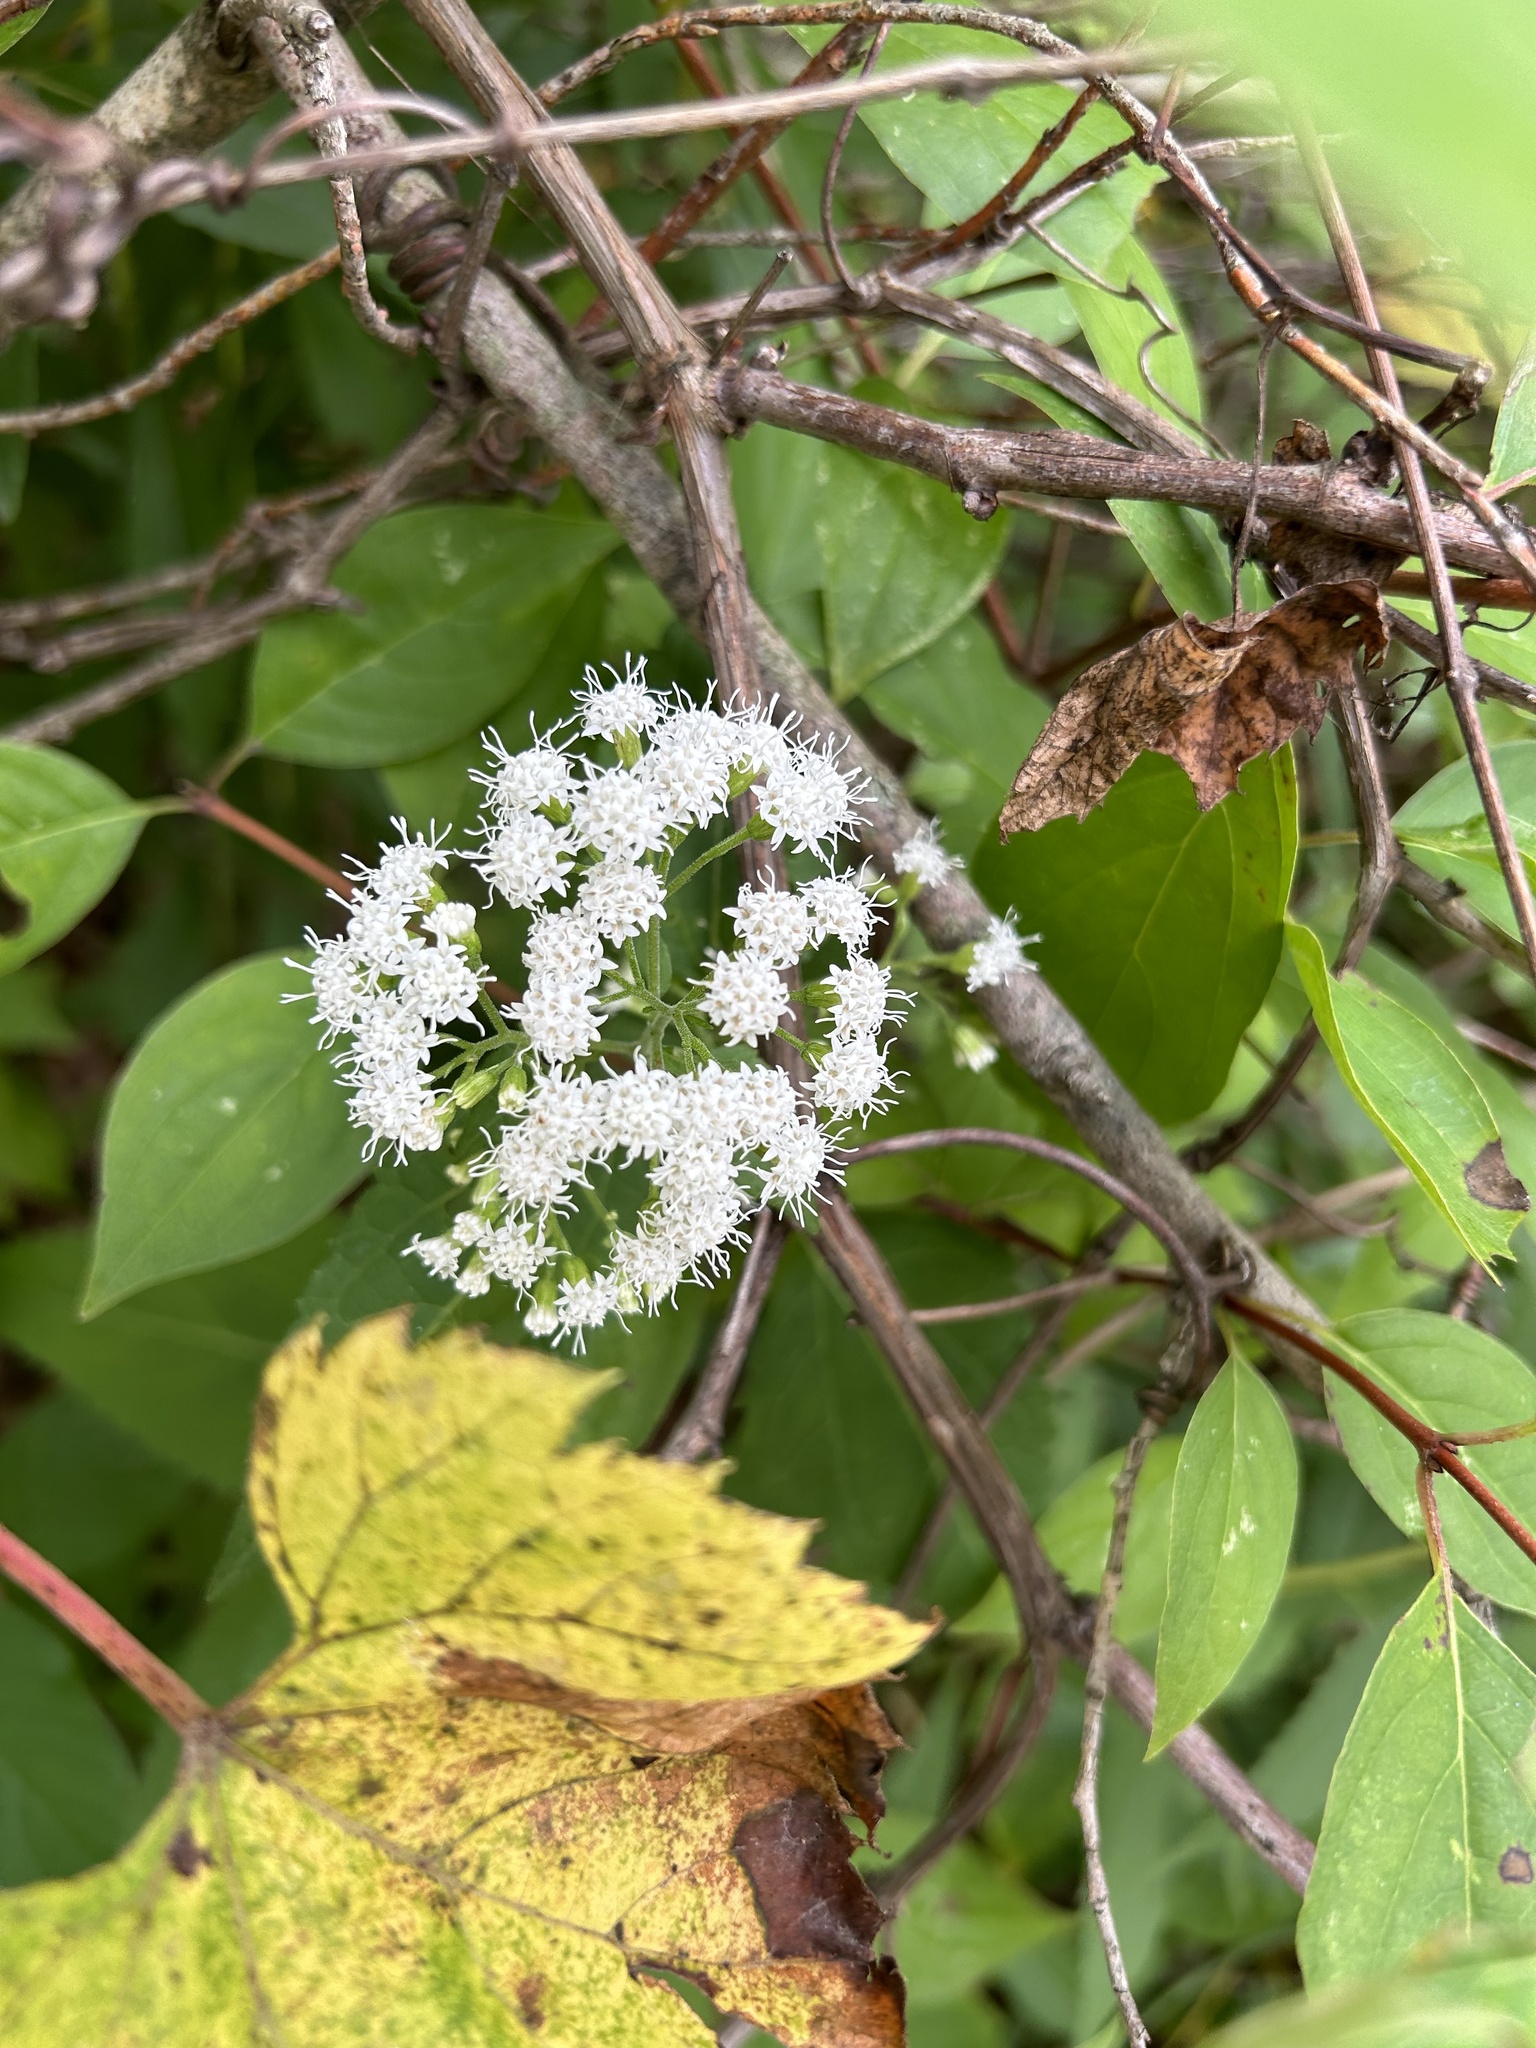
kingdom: Plantae
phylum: Tracheophyta
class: Magnoliopsida
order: Asterales
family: Asteraceae
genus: Ageratina
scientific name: Ageratina altissima
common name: White snakeroot
